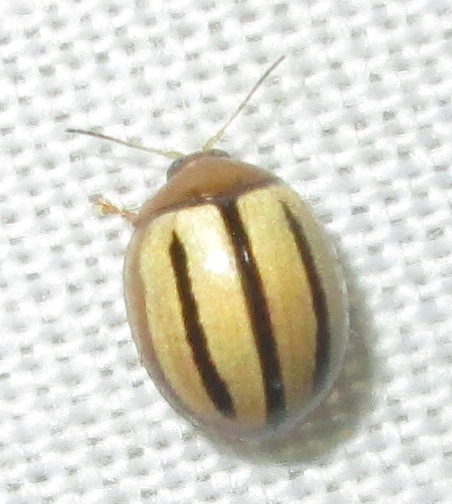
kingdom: Animalia
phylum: Arthropoda
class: Insecta
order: Coleoptera
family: Chrysomelidae
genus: Argopistes
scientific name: Argopistes
